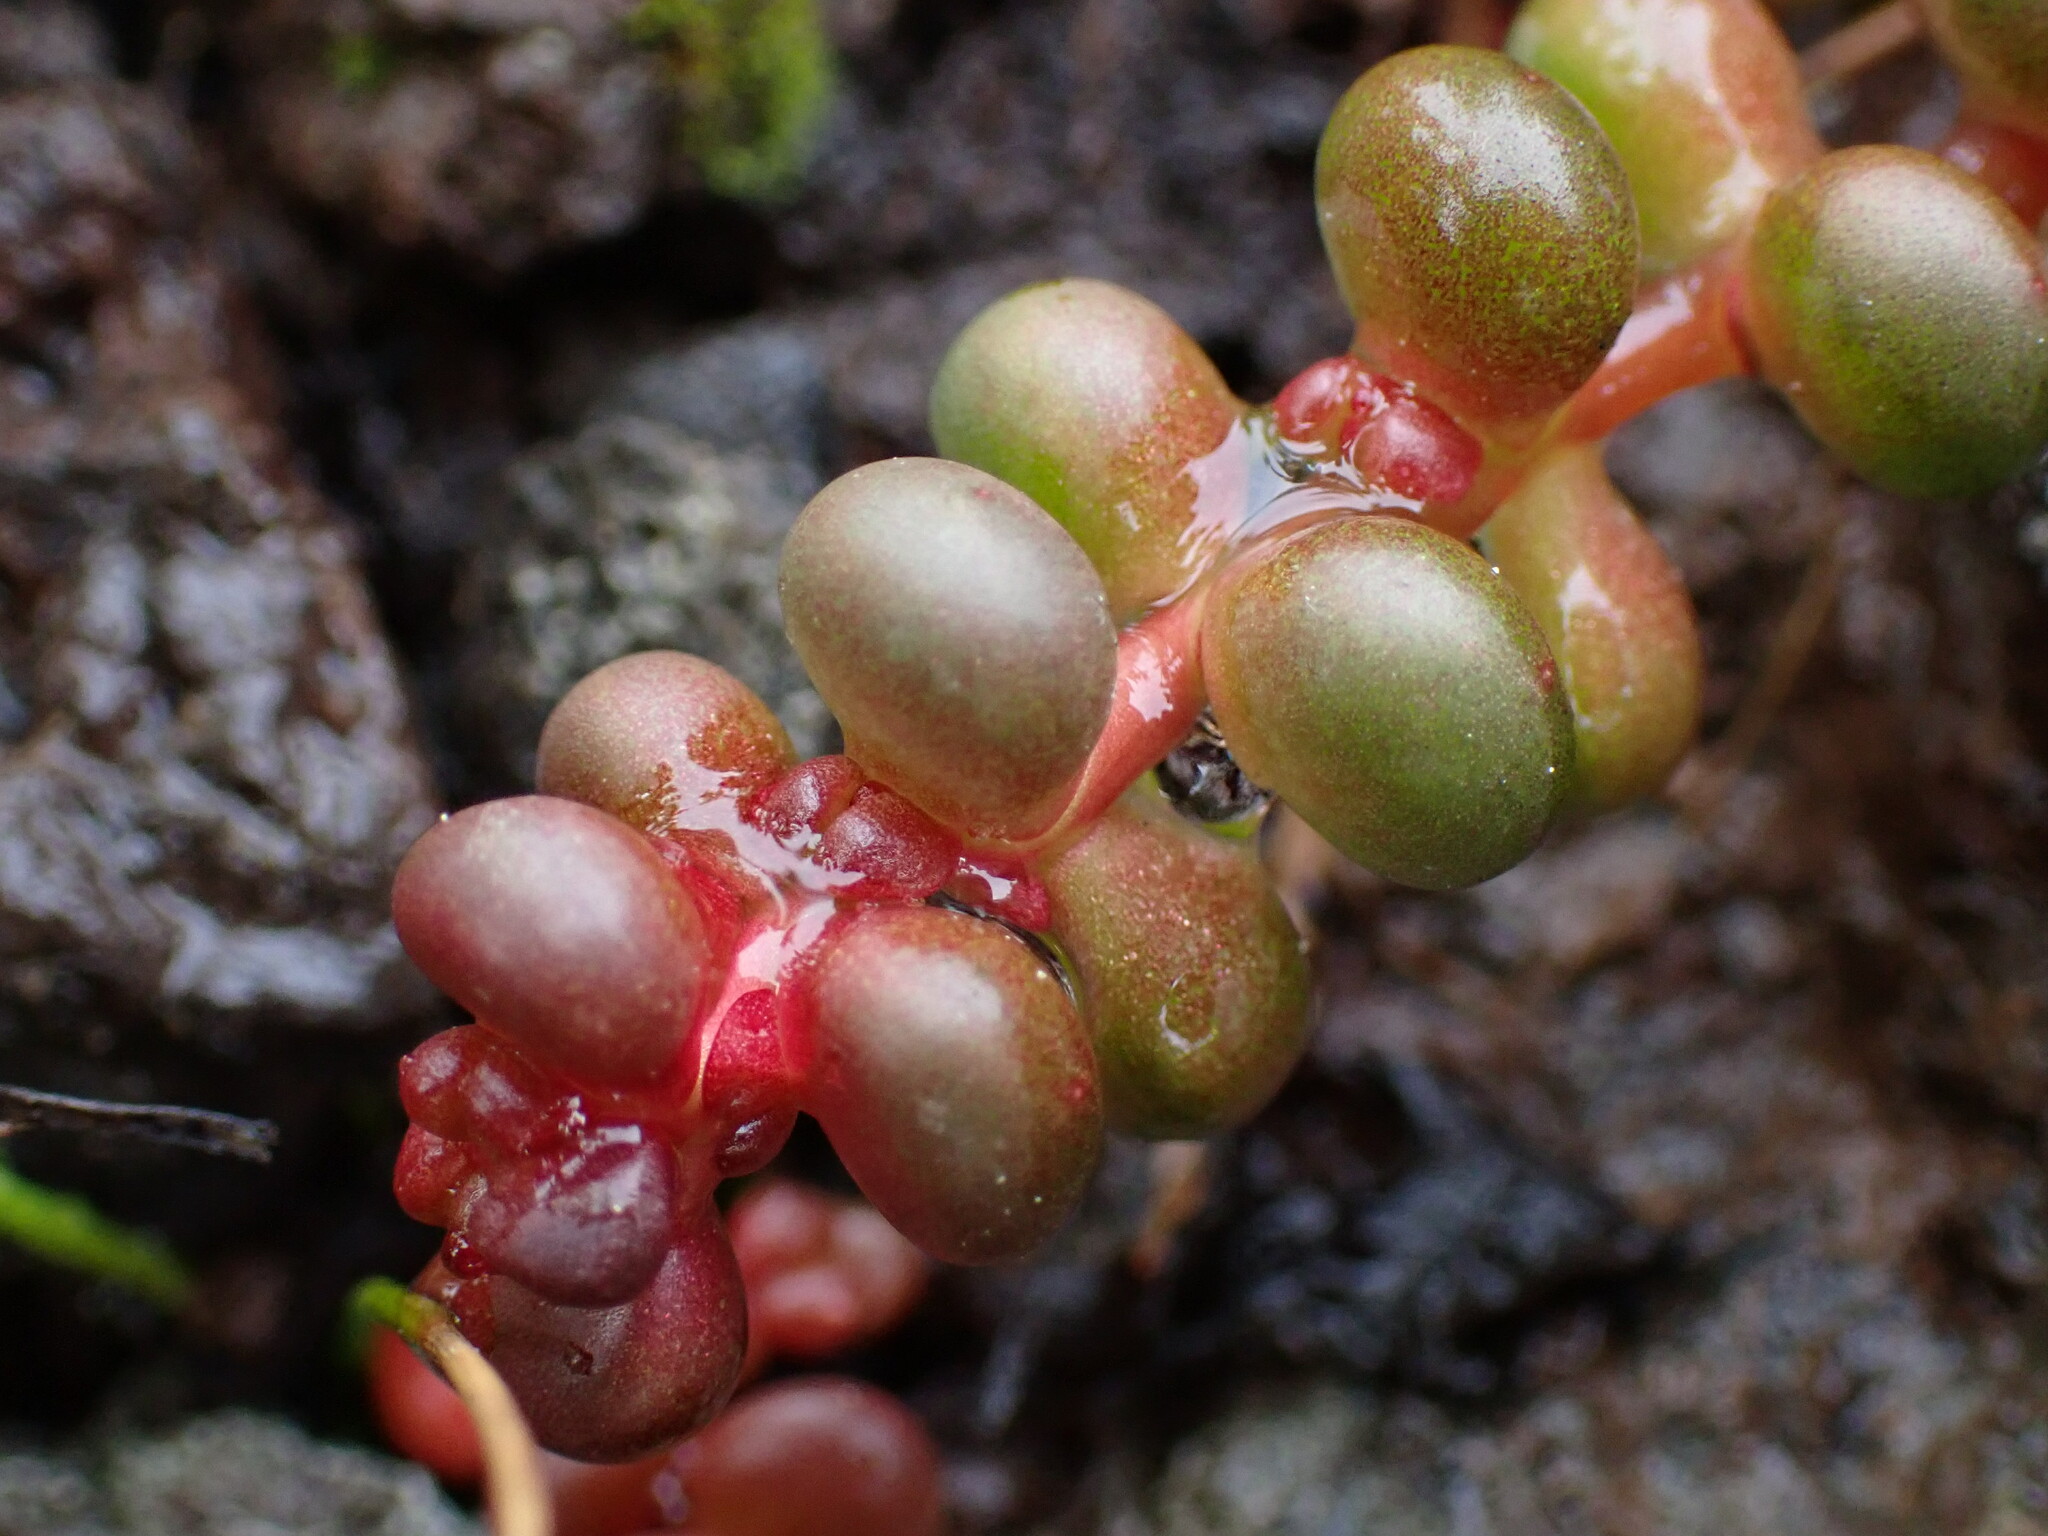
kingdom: Plantae
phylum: Tracheophyta
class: Magnoliopsida
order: Saxifragales
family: Crassulaceae
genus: Sedum
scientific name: Sedum divergens
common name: Cascade stonecrop
